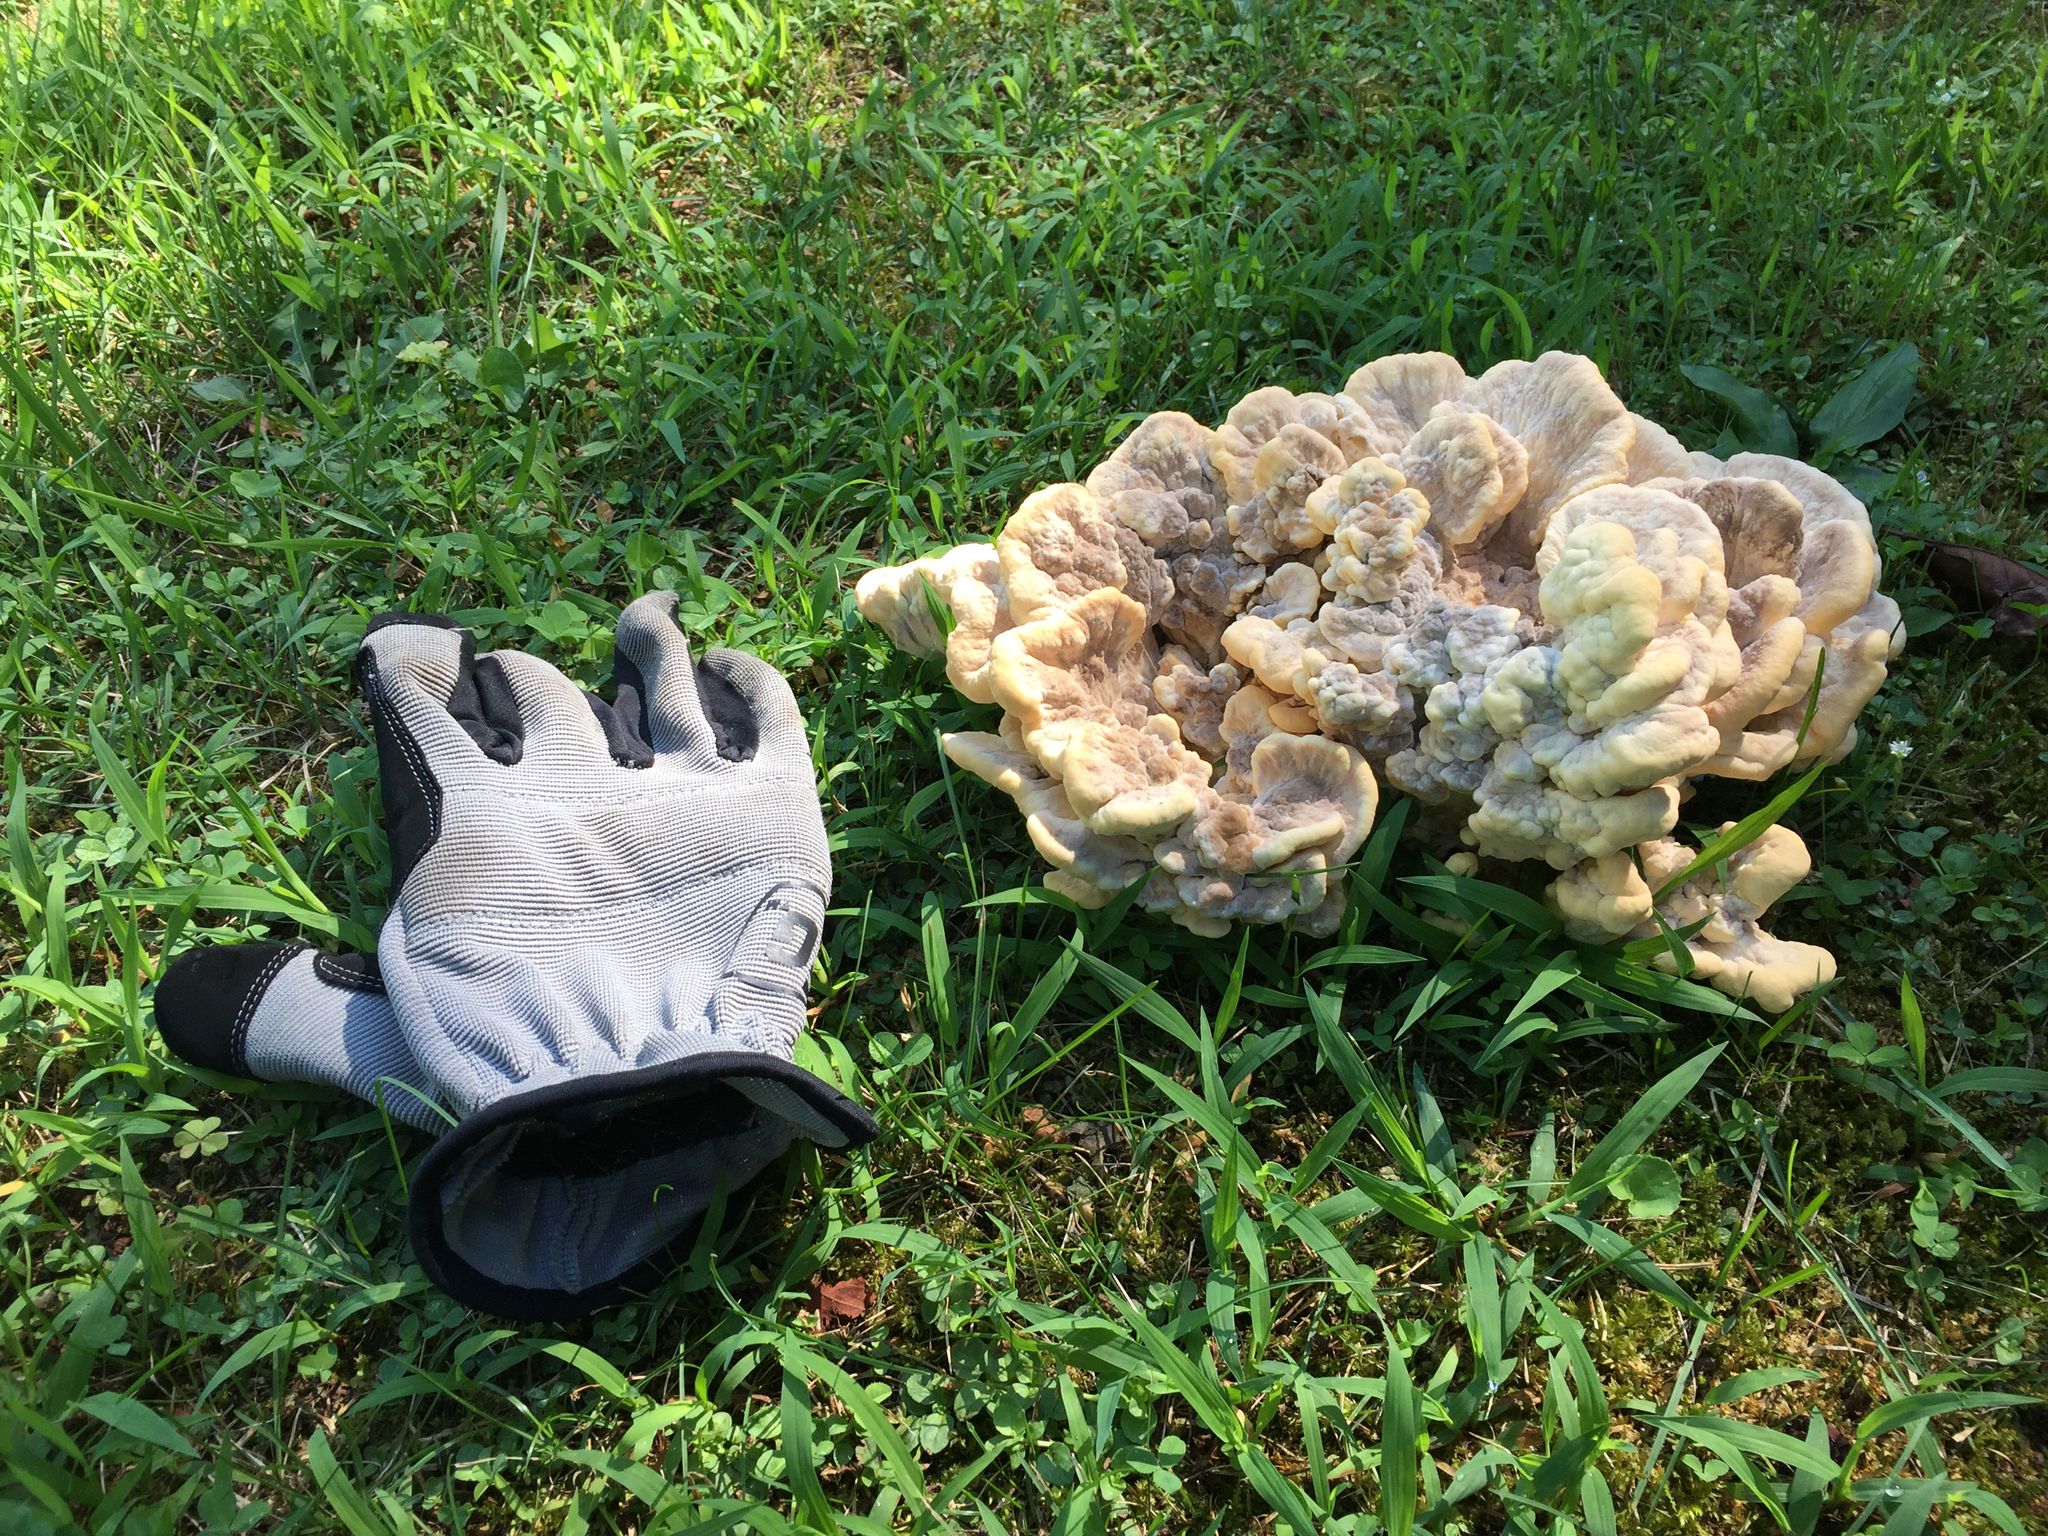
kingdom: Fungi
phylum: Basidiomycota
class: Agaricomycetes
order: Polyporales
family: Meripilaceae
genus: Meripilus
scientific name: Meripilus sumstinei
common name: Black-staining polypore
